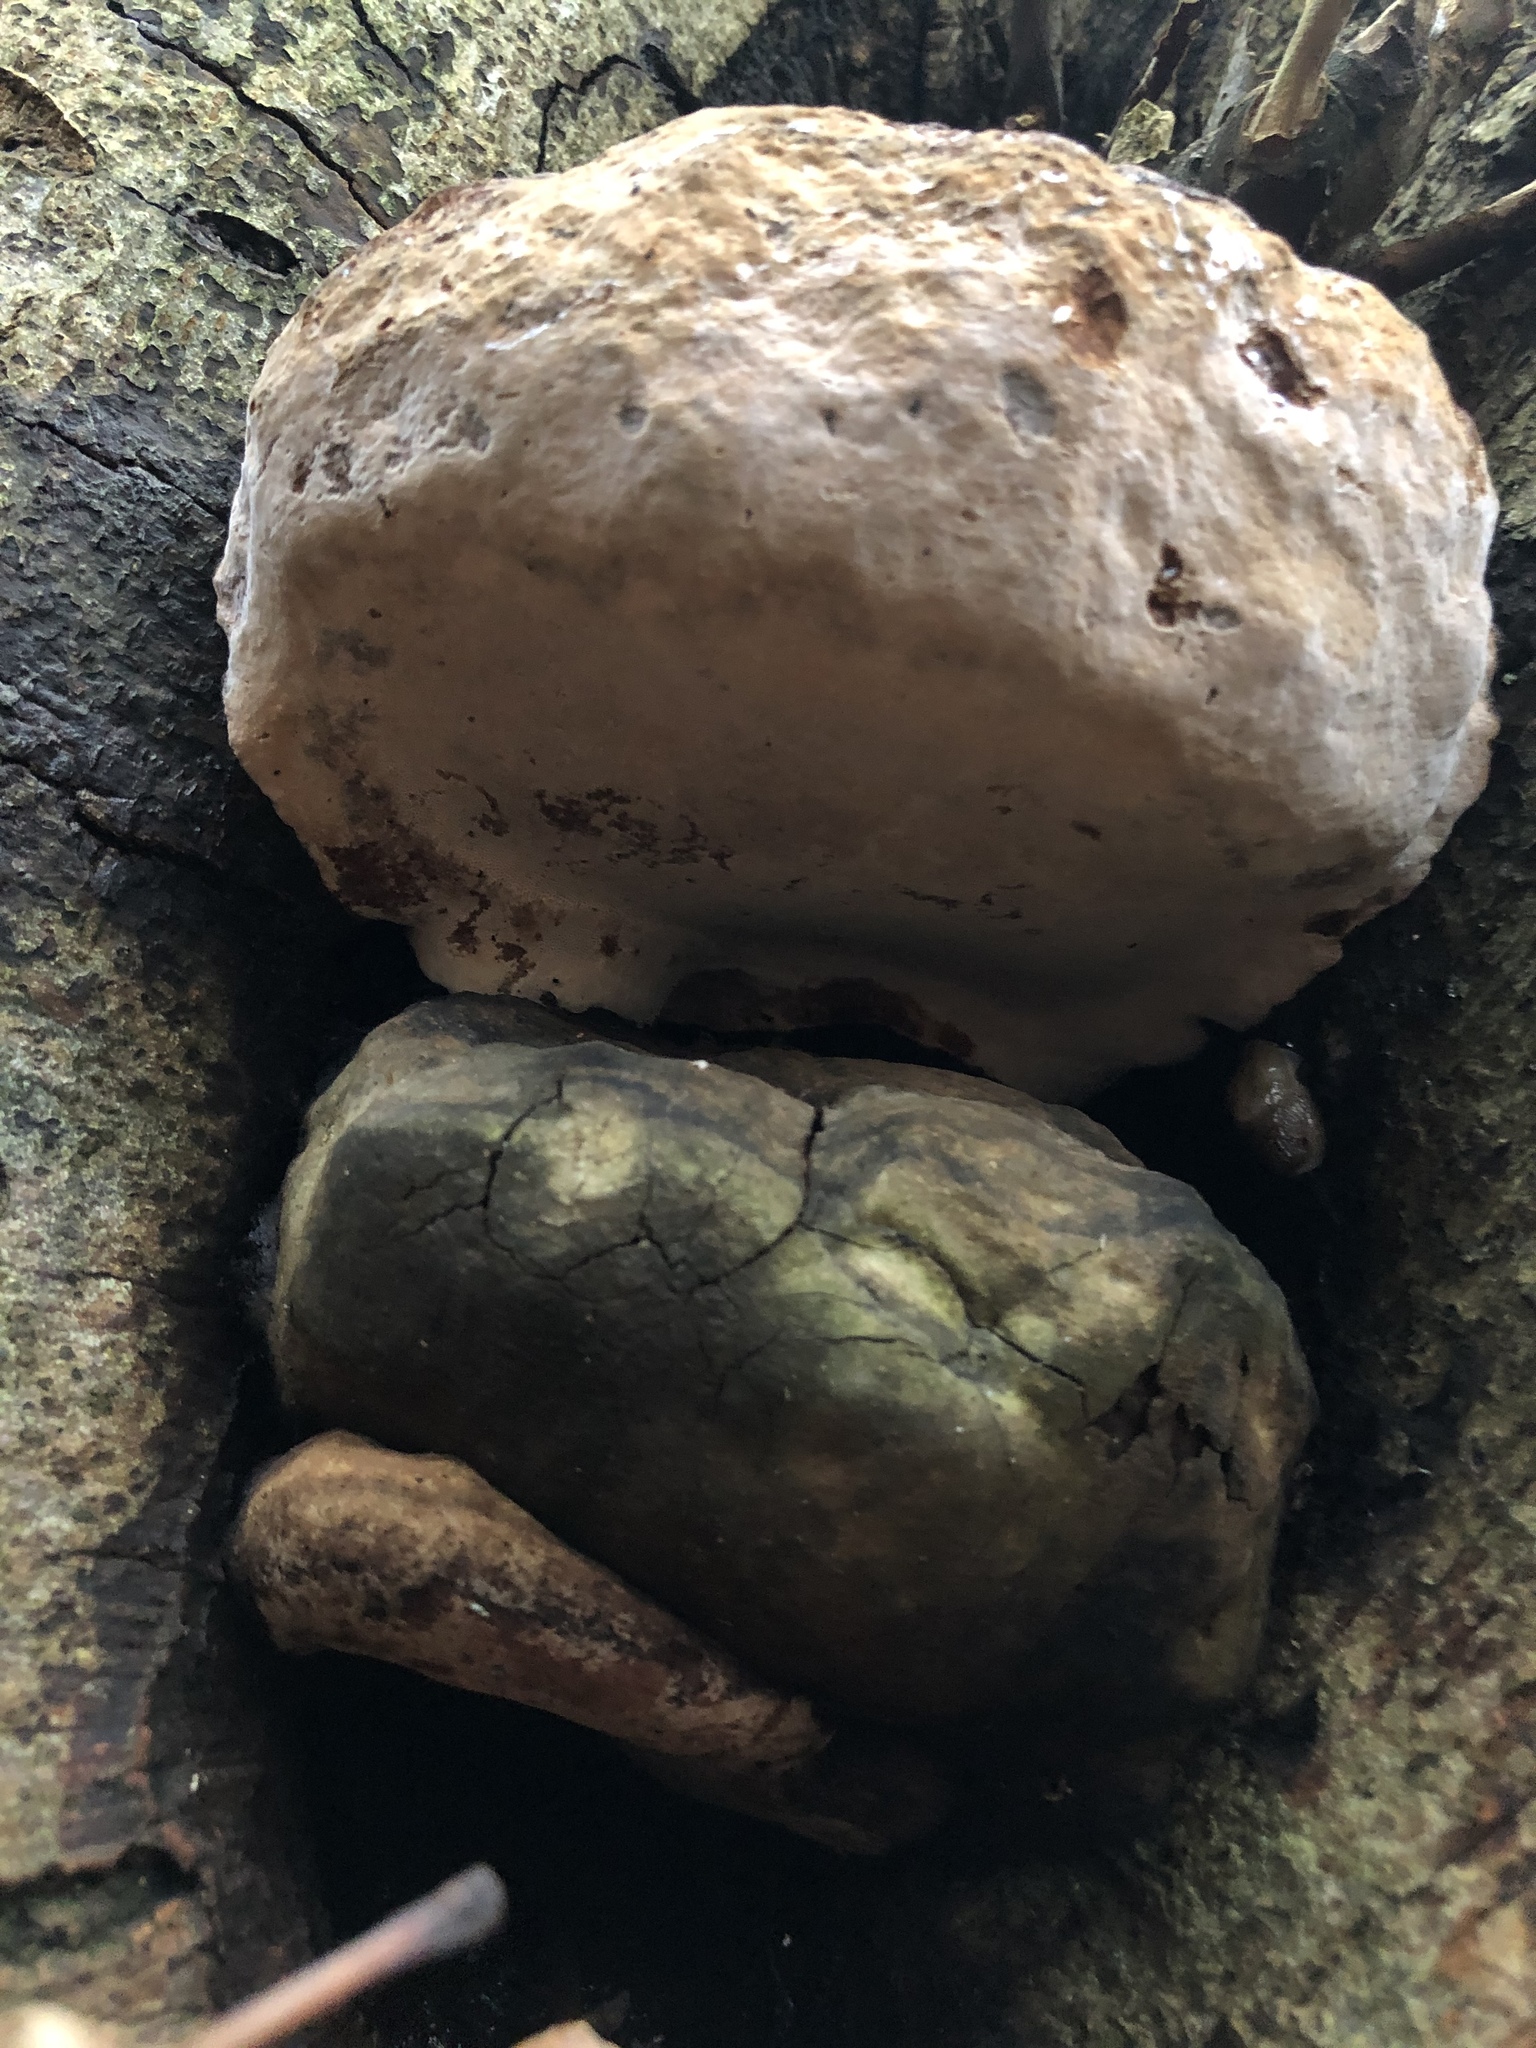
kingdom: Fungi
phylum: Basidiomycota
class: Agaricomycetes
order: Hymenochaetales
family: Hymenochaetaceae
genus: Phellinus
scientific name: Phellinus igniarius
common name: Willow bracket
